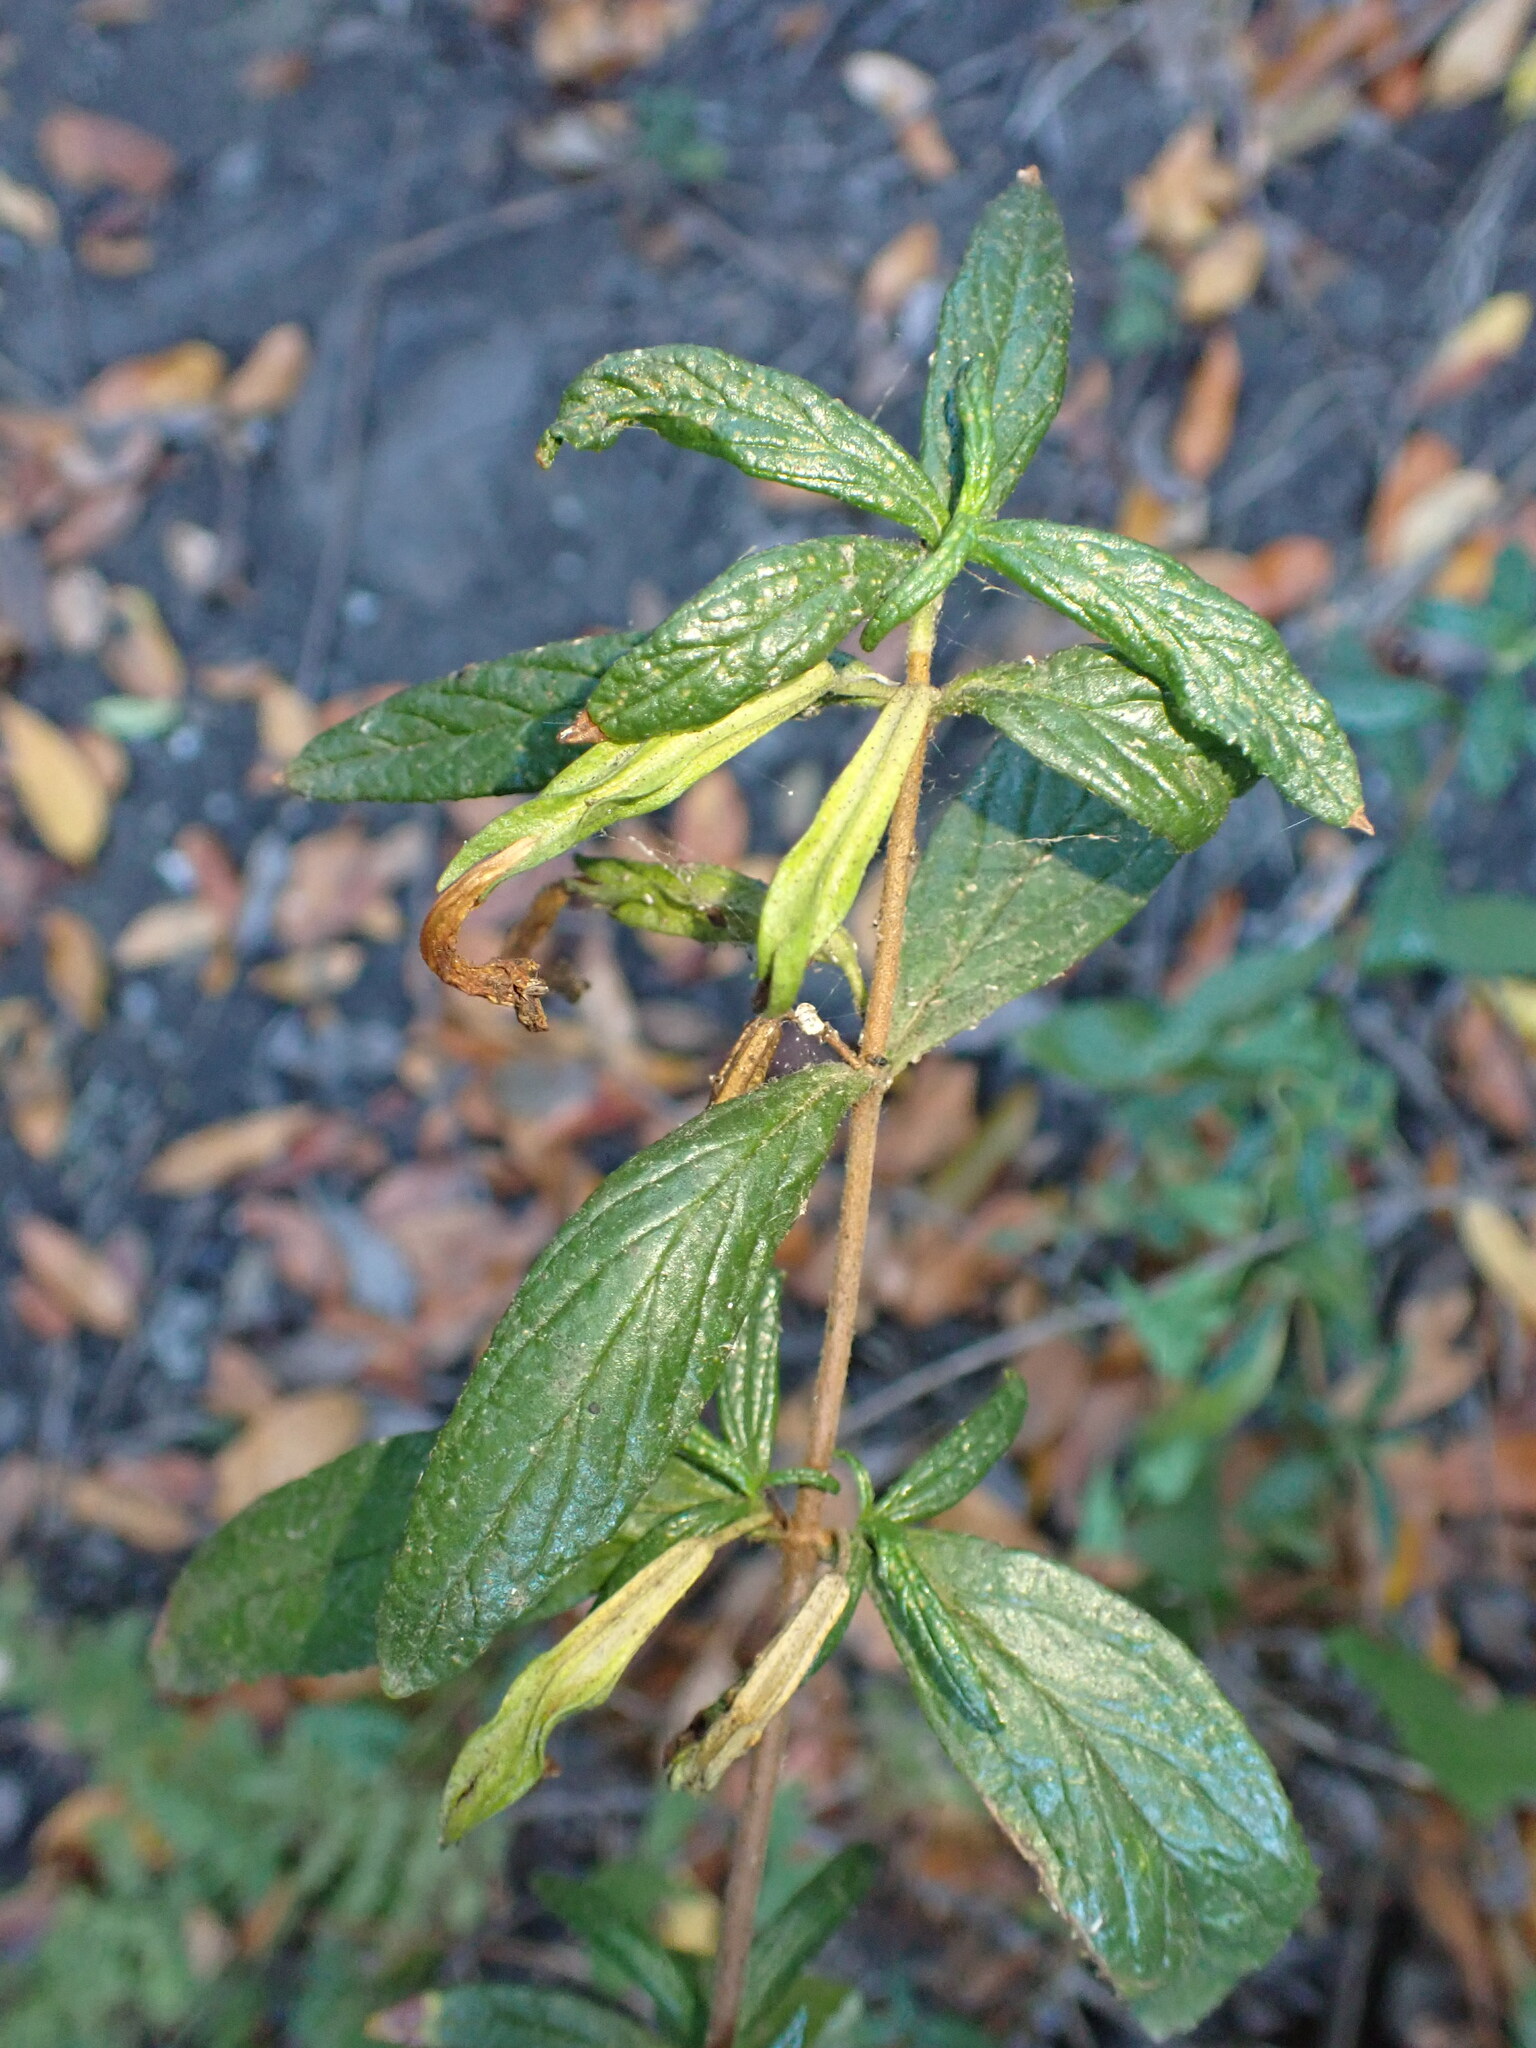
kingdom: Plantae
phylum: Tracheophyta
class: Magnoliopsida
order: Lamiales
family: Phrymaceae
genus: Diplacus
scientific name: Diplacus aurantiacus
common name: Bush monkey-flower
